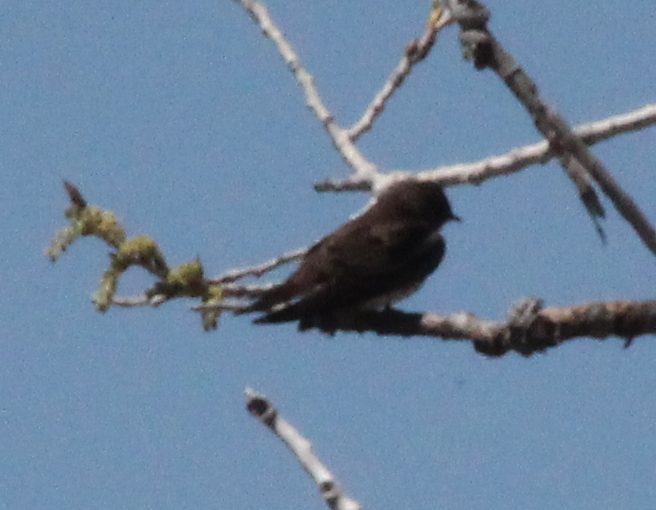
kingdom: Animalia
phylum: Chordata
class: Aves
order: Passeriformes
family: Hirundinidae
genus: Stelgidopteryx
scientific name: Stelgidopteryx serripennis
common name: Northern rough-winged swallow
